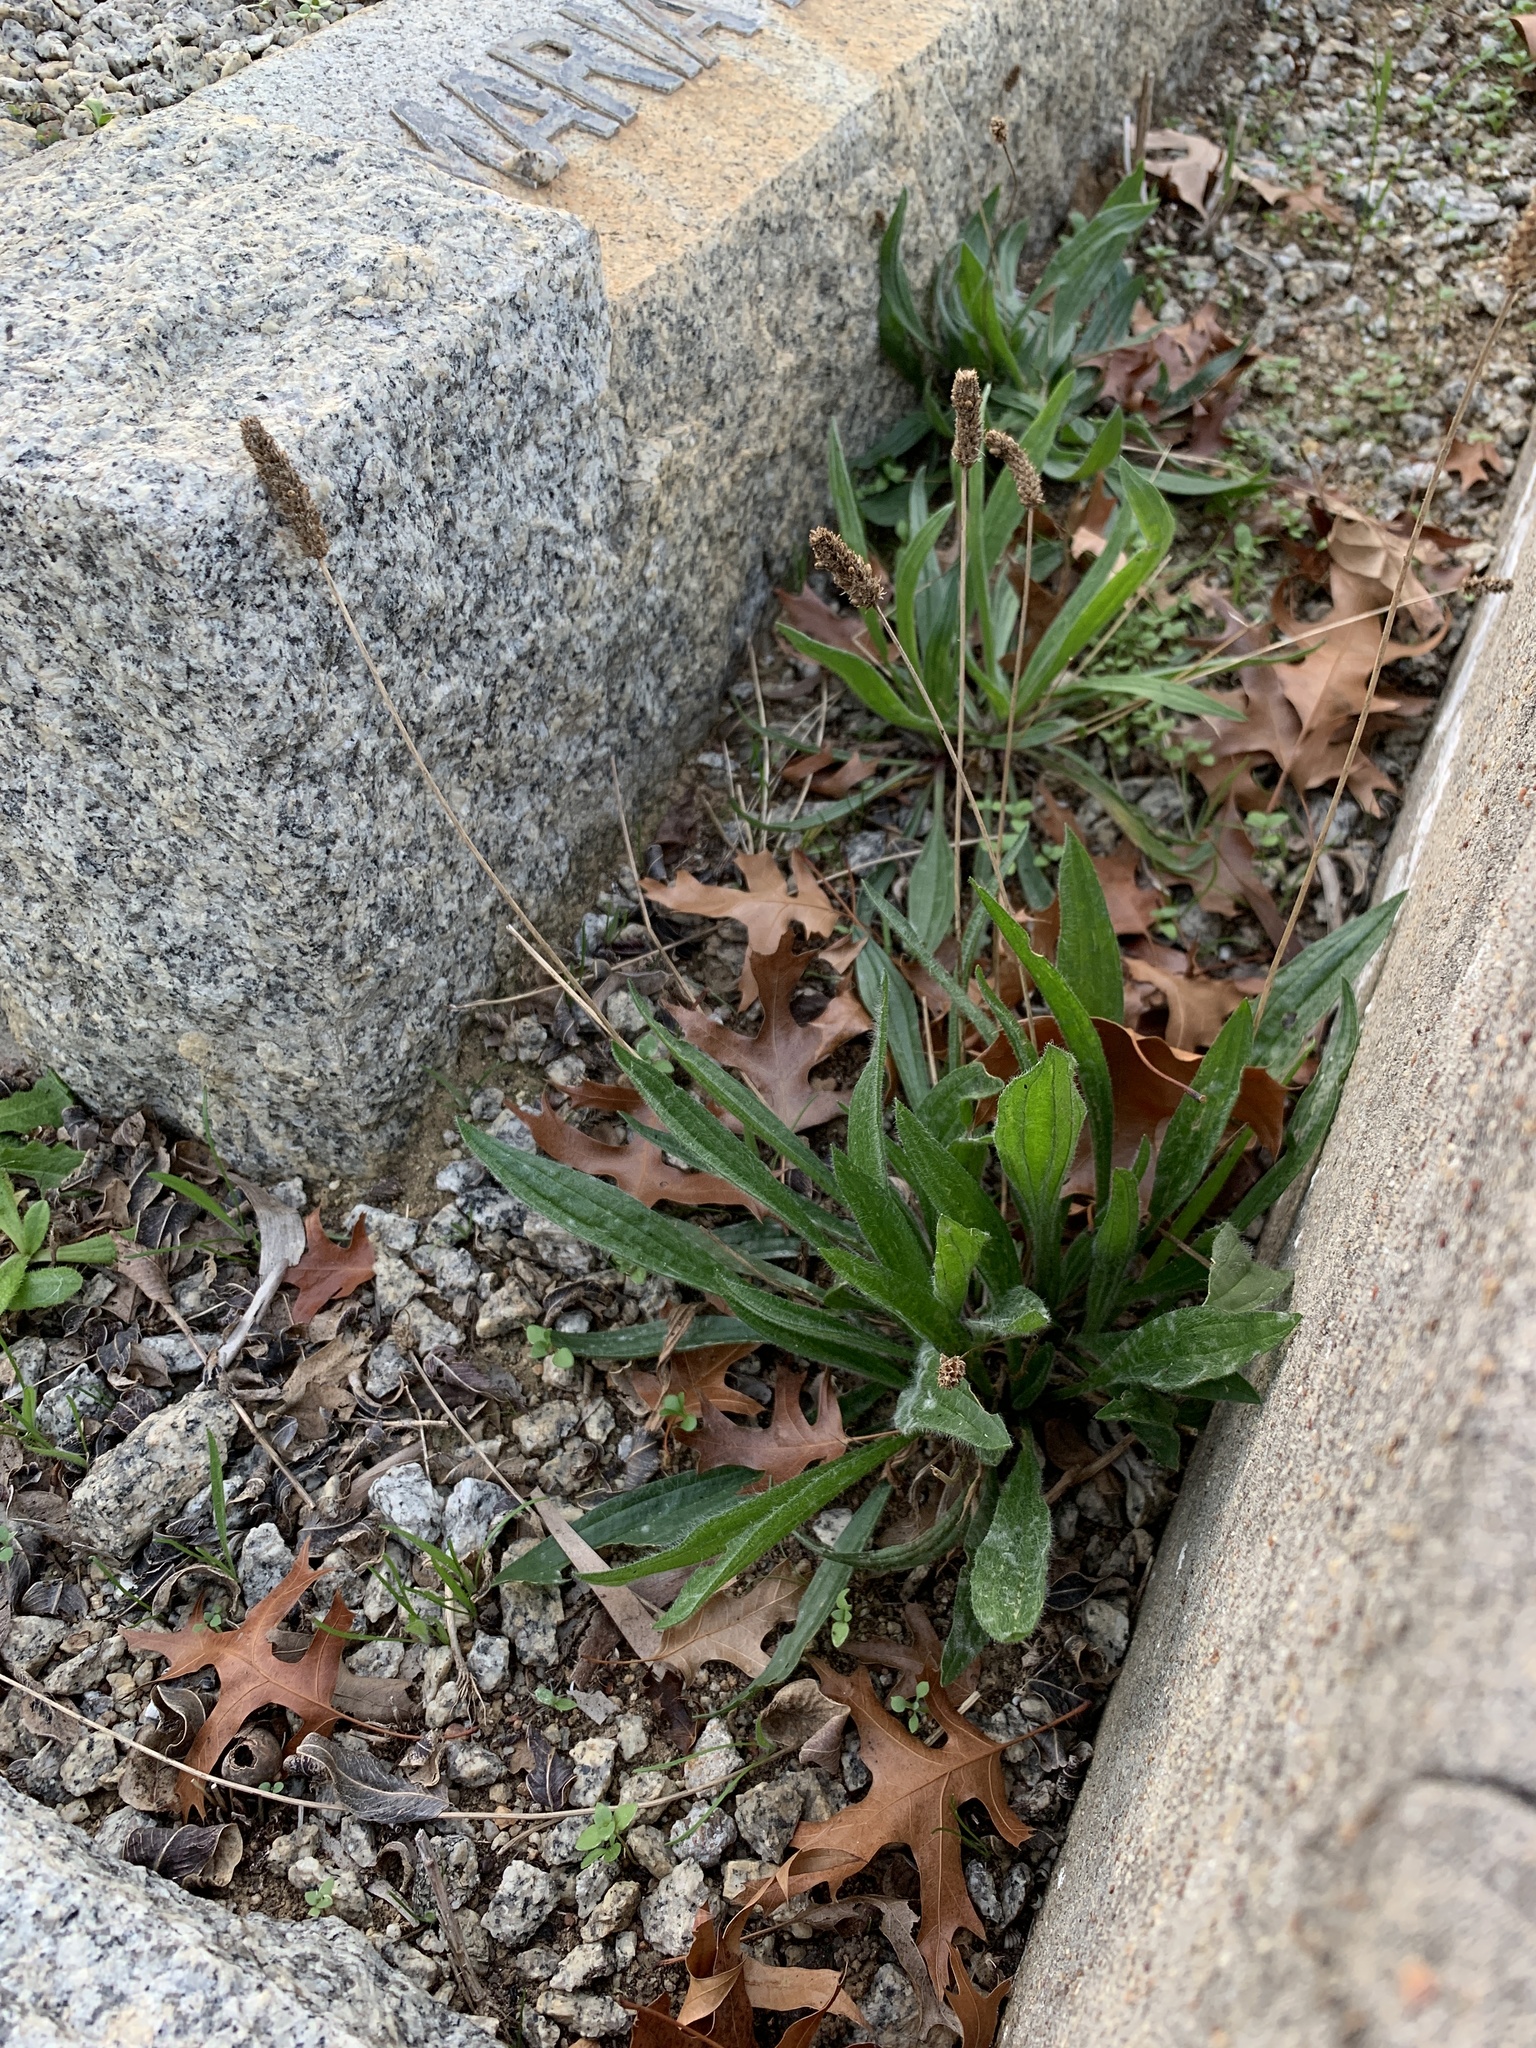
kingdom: Plantae
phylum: Tracheophyta
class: Magnoliopsida
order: Lamiales
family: Plantaginaceae
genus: Plantago
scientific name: Plantago lanceolata
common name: Ribwort plantain
